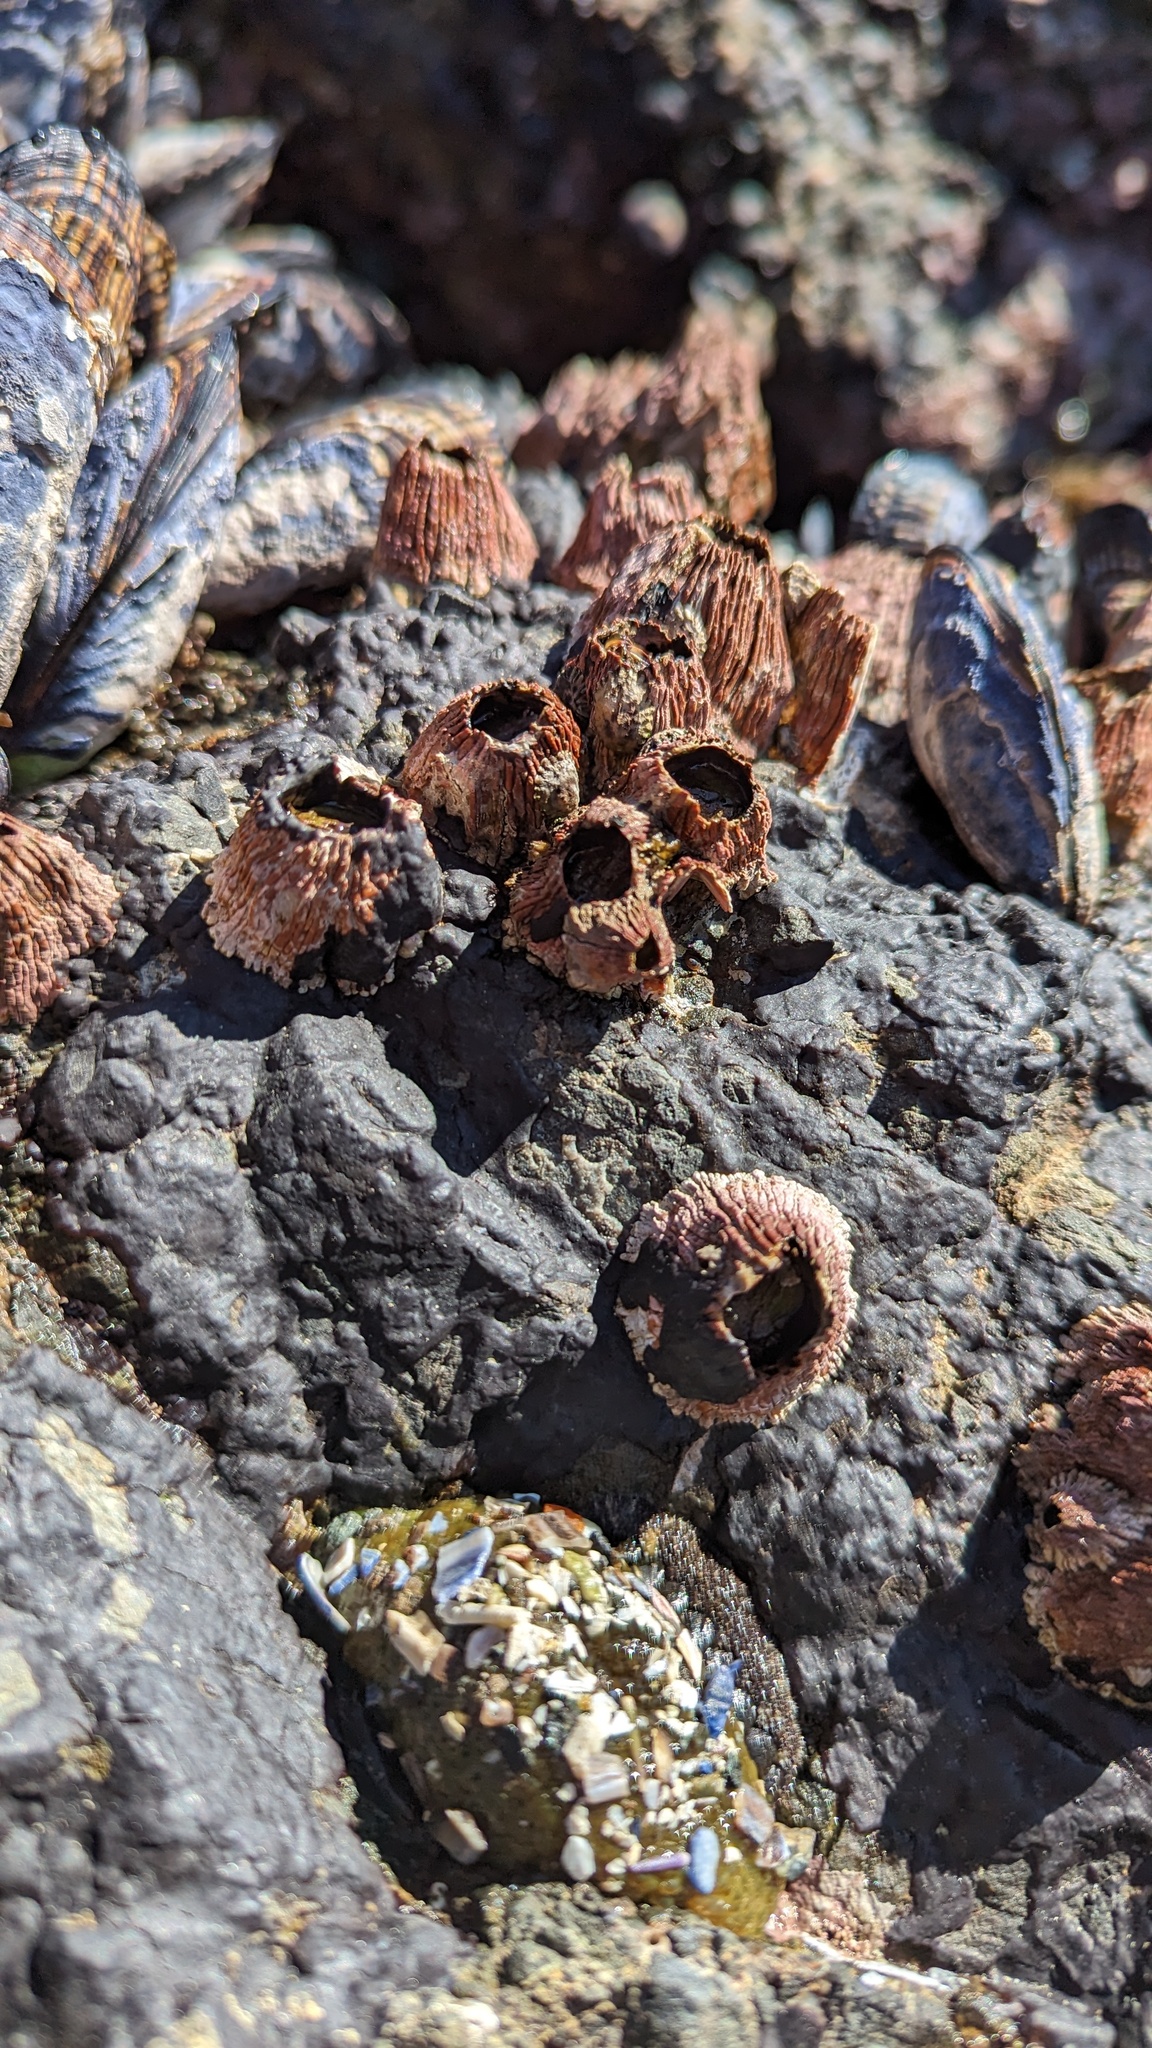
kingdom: Animalia
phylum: Arthropoda
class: Maxillopoda
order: Sessilia
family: Tetraclitidae
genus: Tetraclita
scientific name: Tetraclita rubescens
